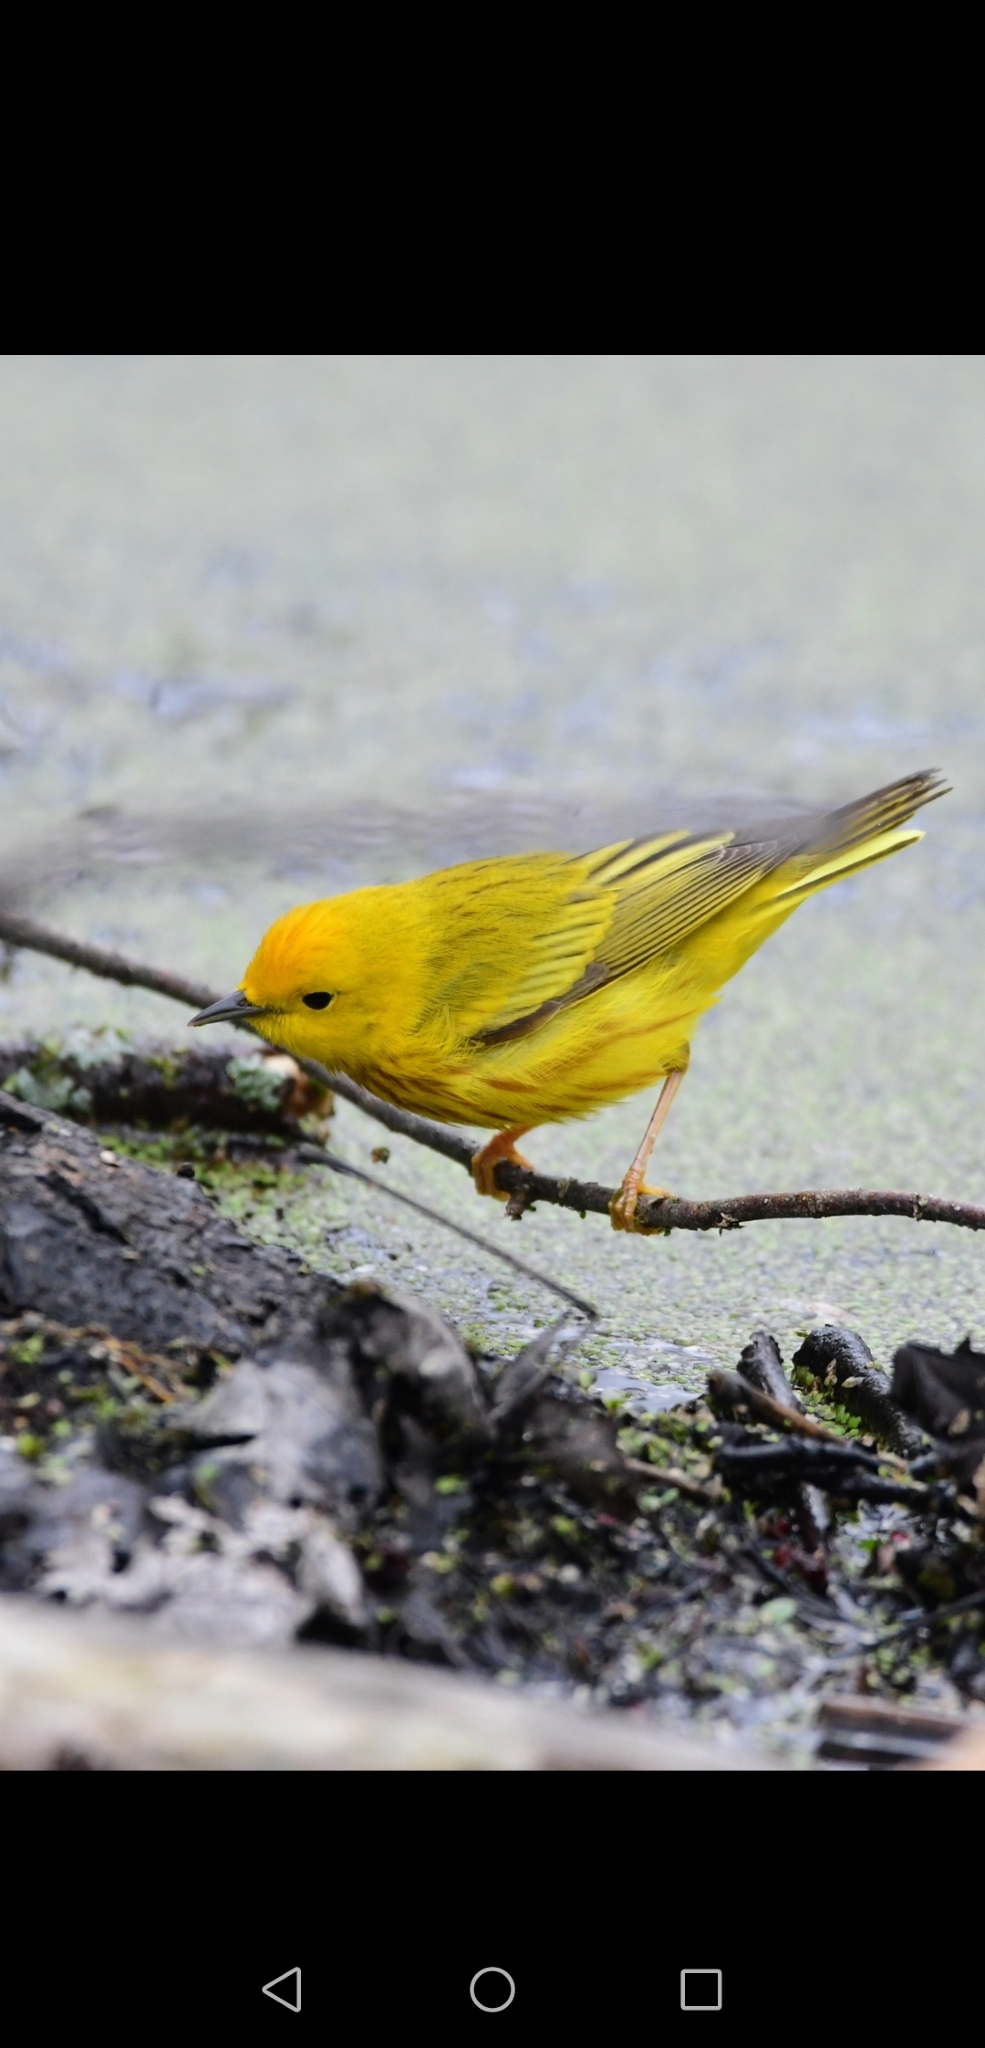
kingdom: Animalia
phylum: Chordata
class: Aves
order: Passeriformes
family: Parulidae
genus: Setophaga
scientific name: Setophaga petechia
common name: Yellow warbler
